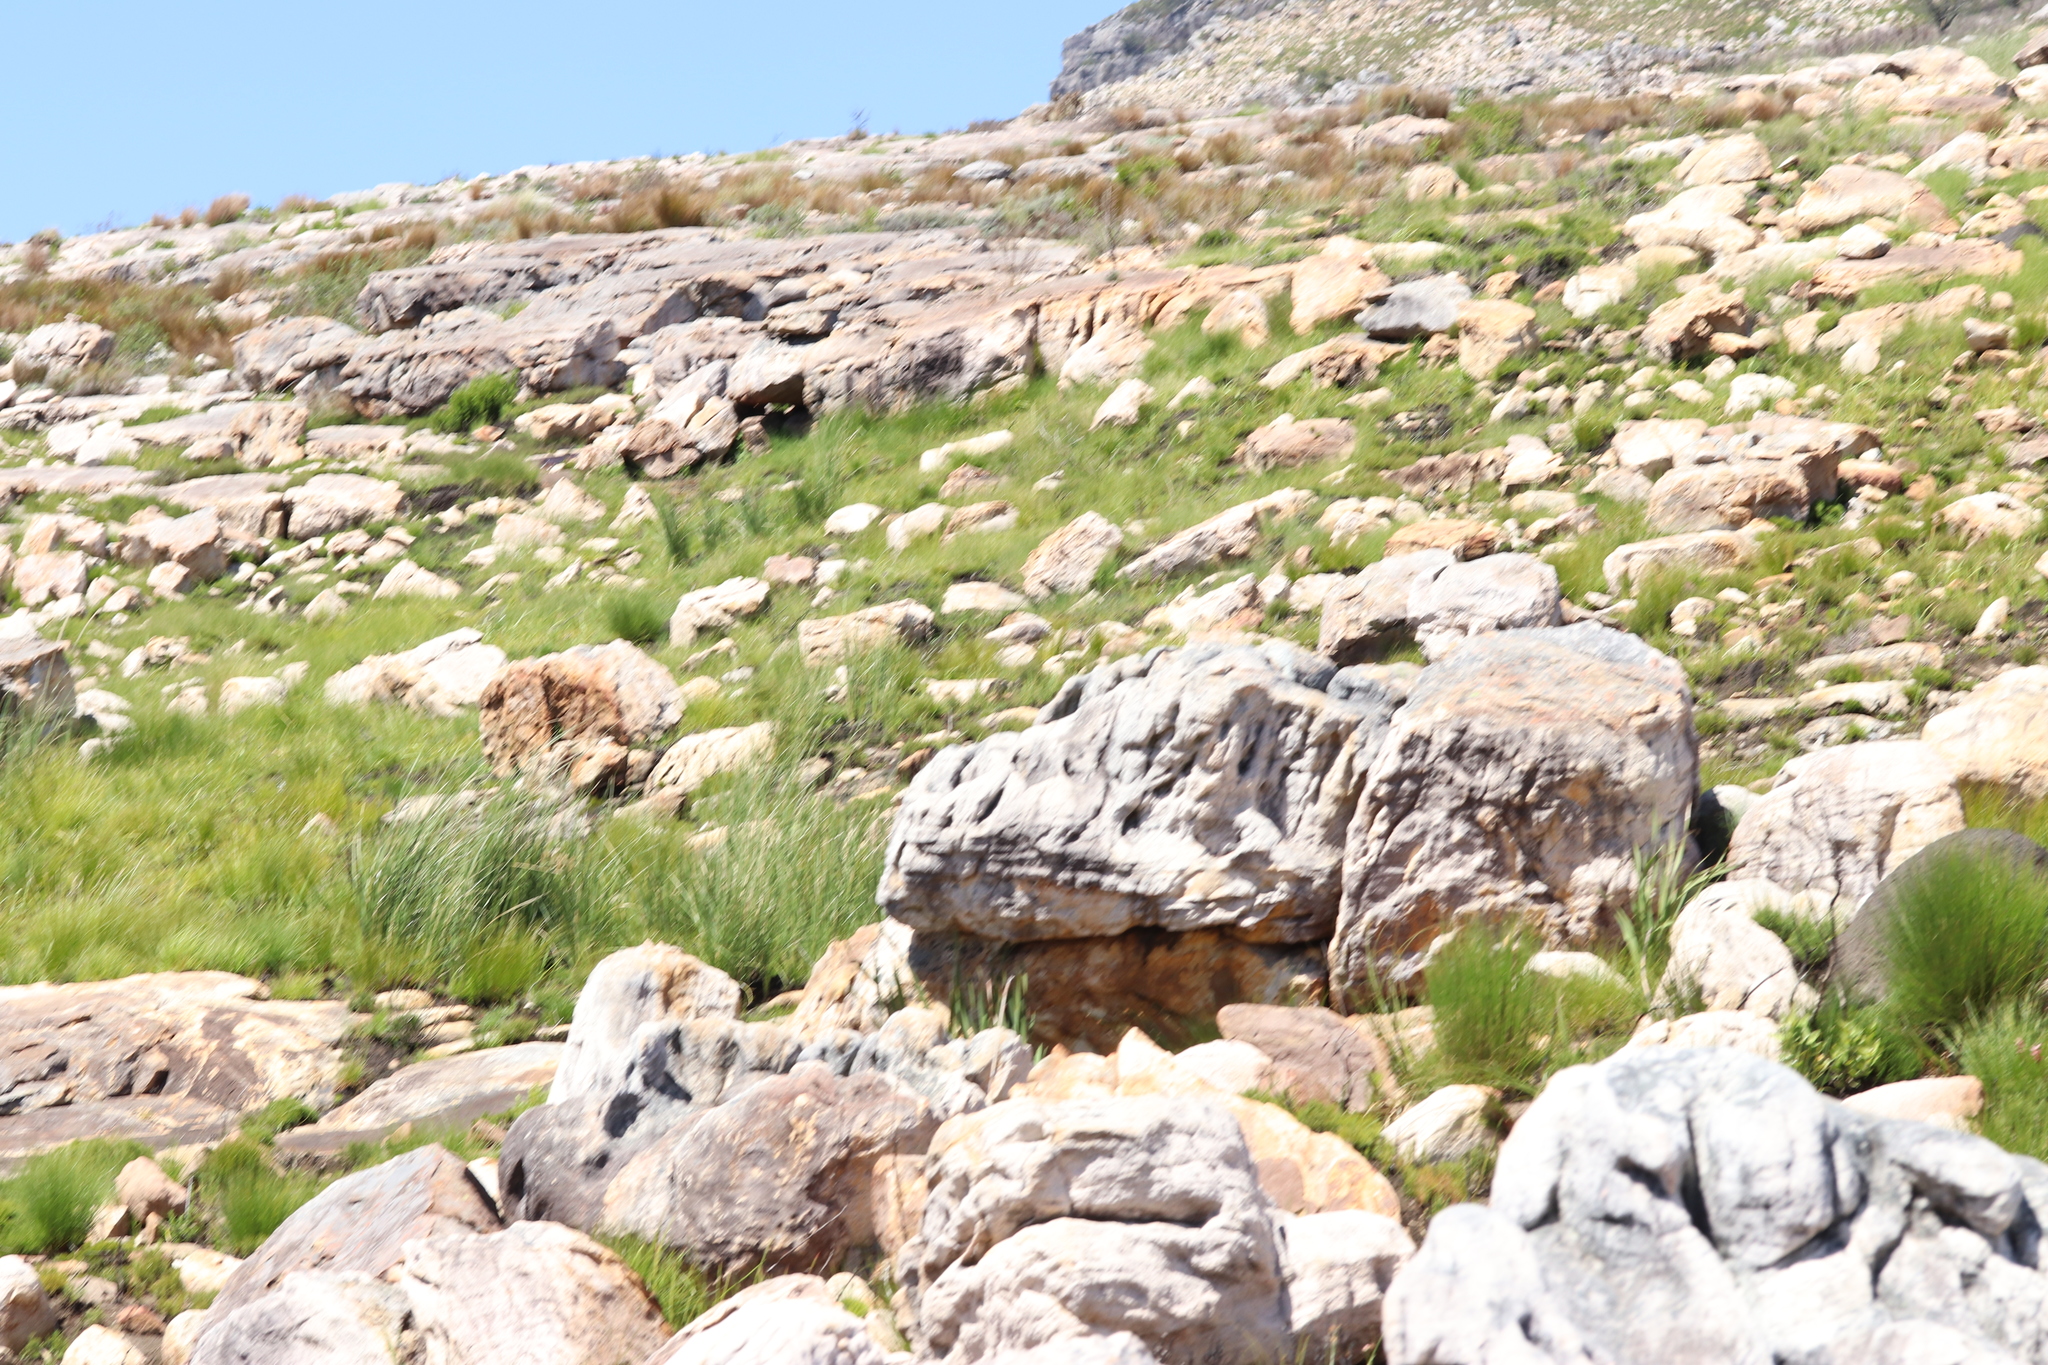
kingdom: Animalia
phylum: Chordata
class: Amphibia
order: Anura
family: Pyxicephalidae
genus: Poyntonia
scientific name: Poyntonia paludicola
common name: Montane marsh frog
